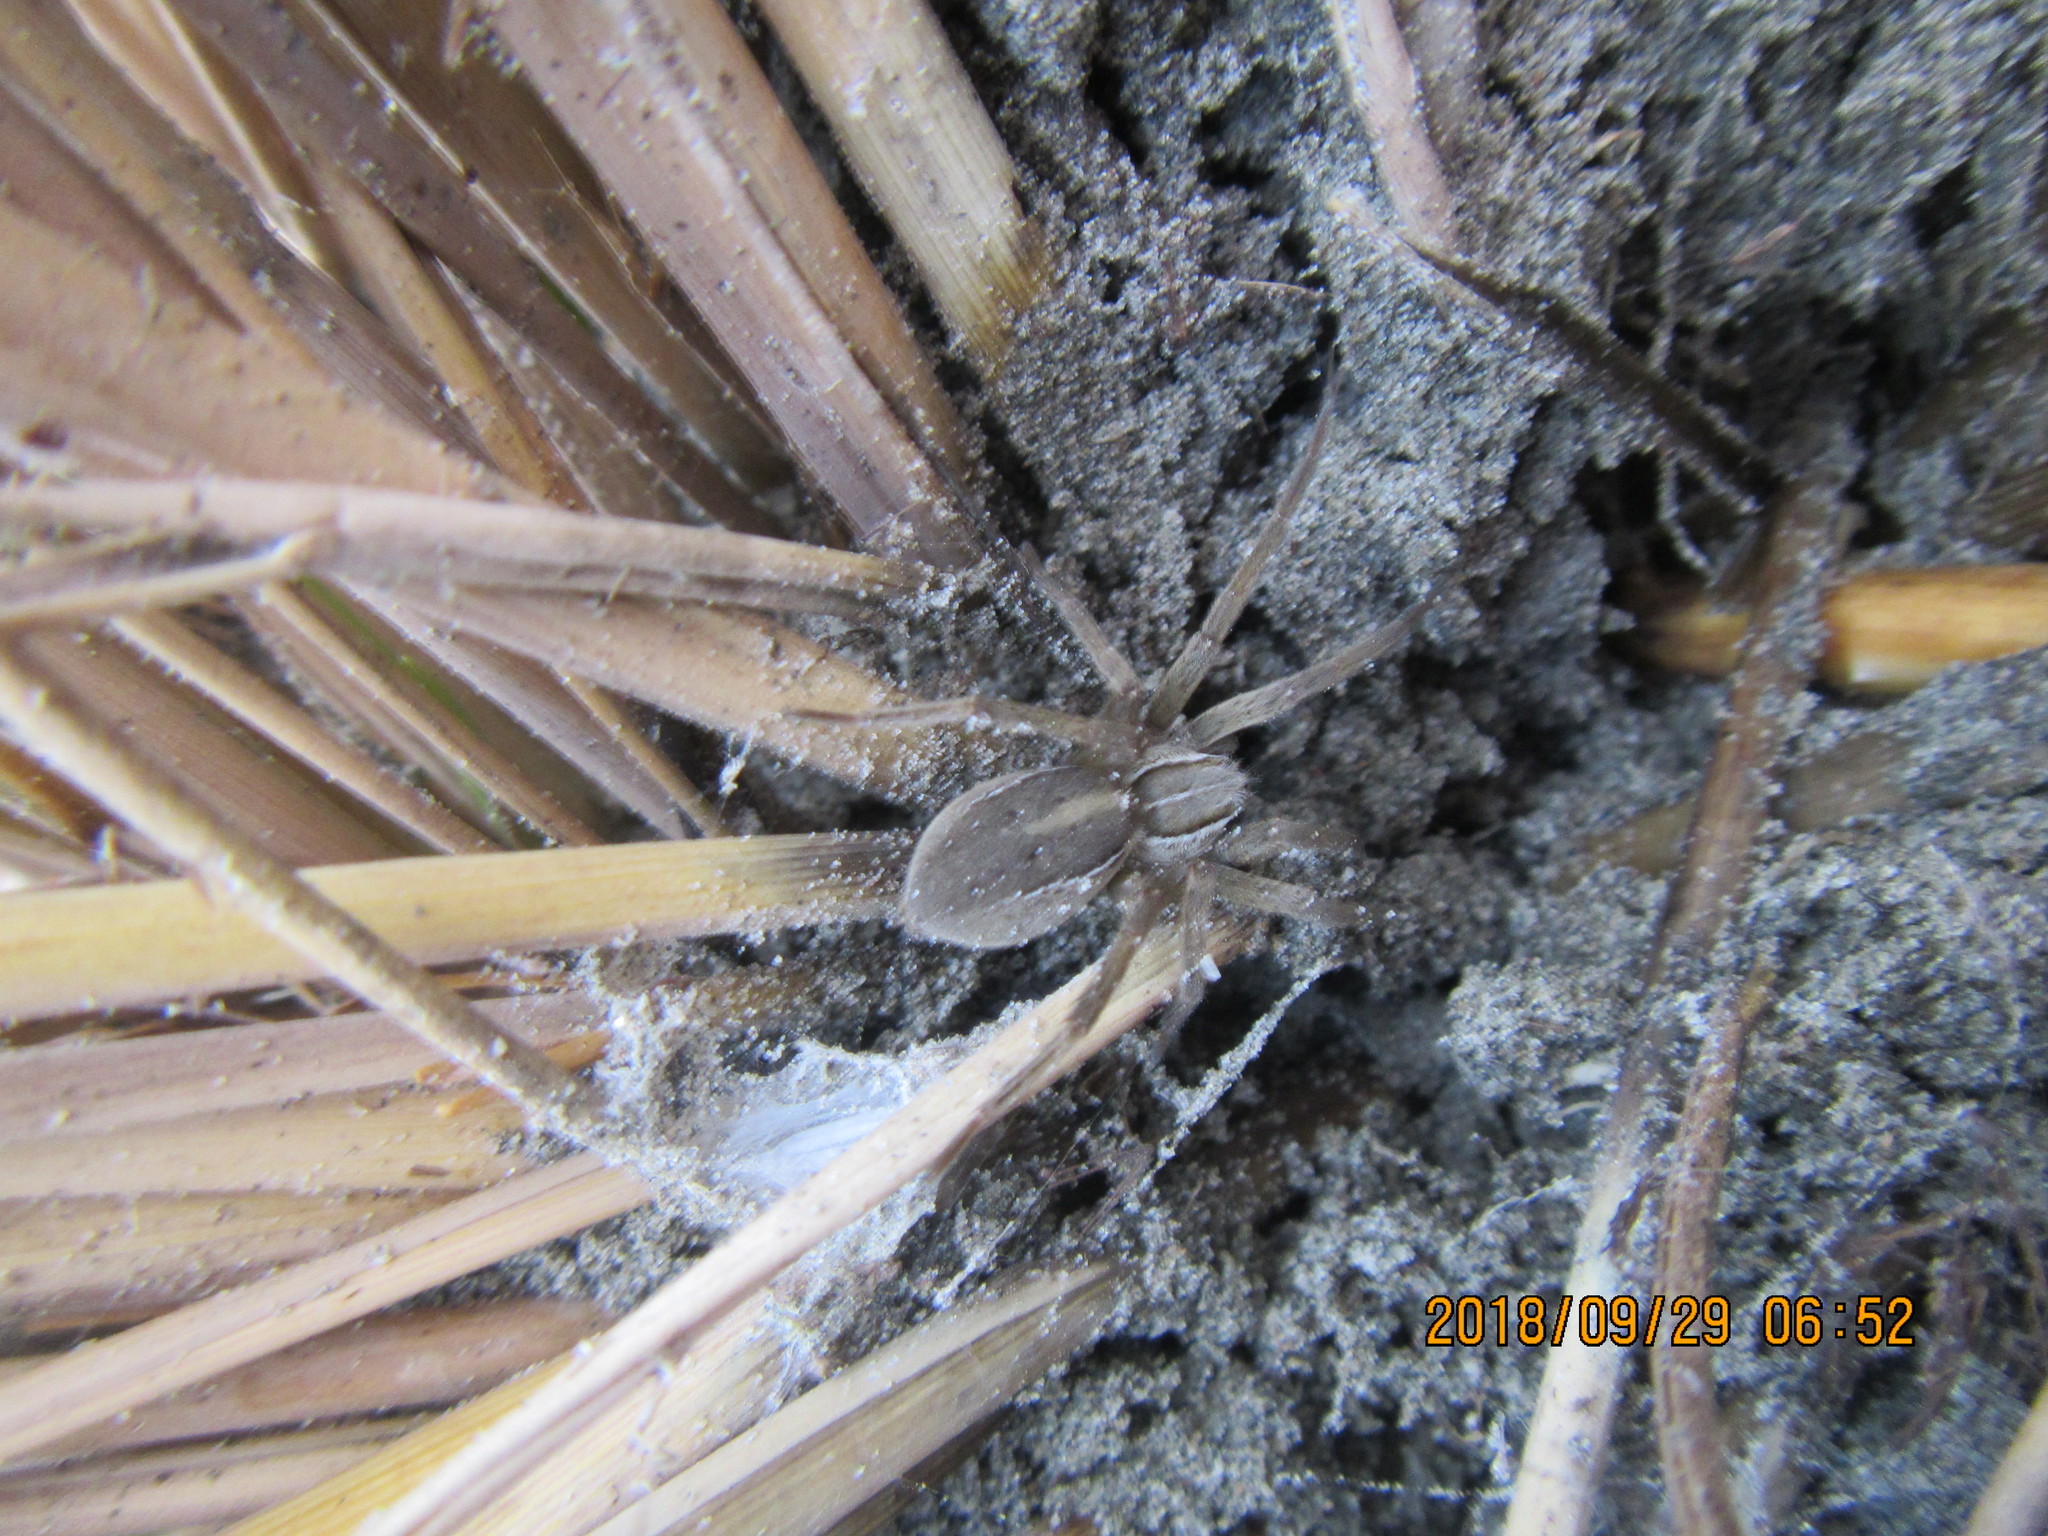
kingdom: Animalia
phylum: Arthropoda
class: Arachnida
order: Araneae
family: Pisauridae
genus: Dolomedes
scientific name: Dolomedes minor
